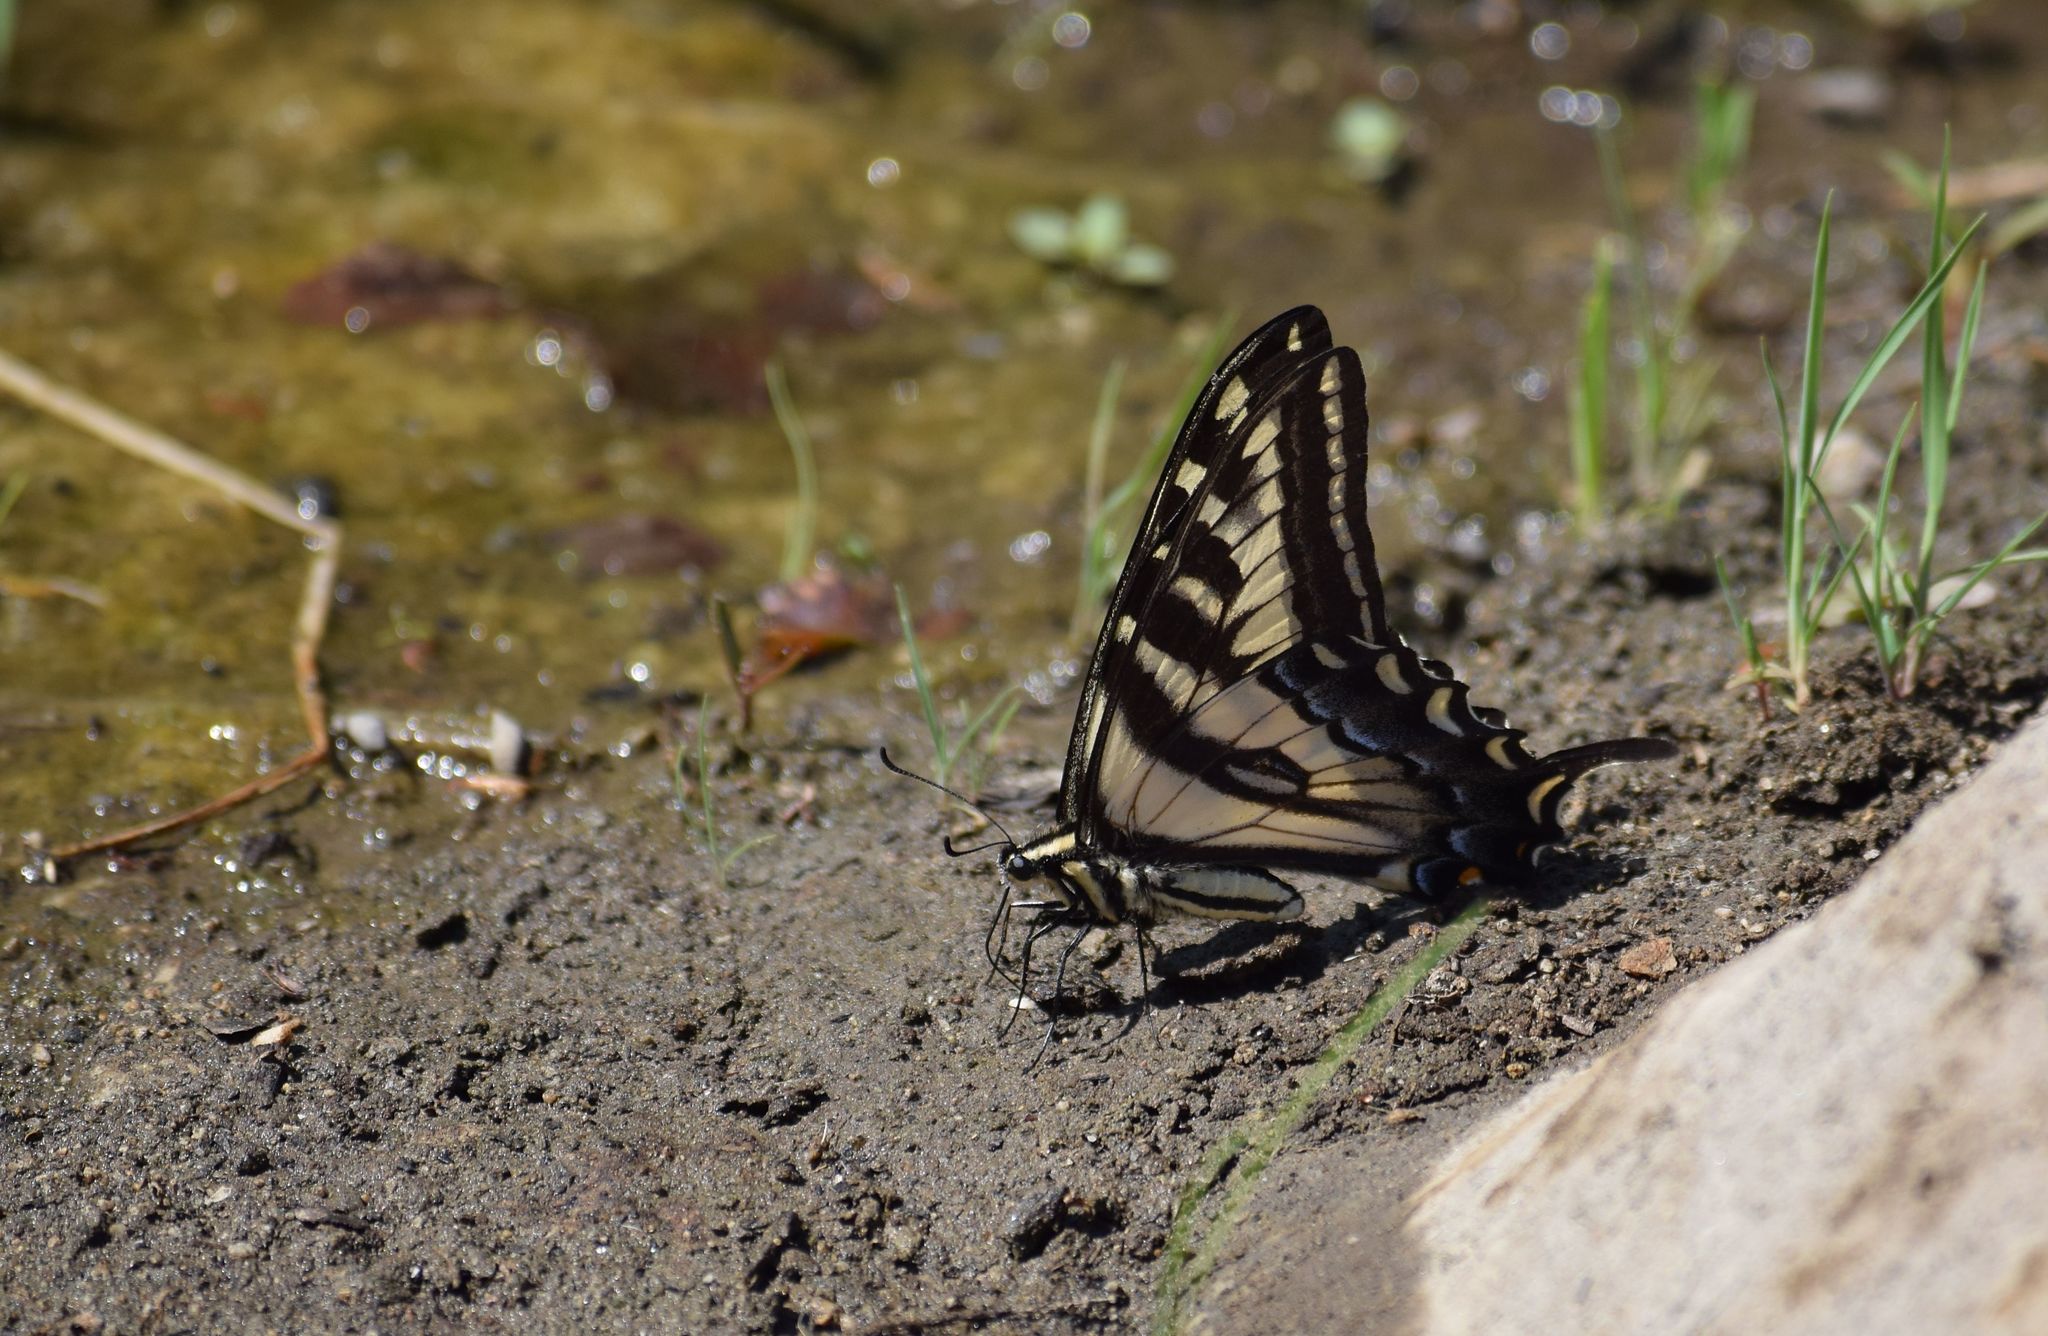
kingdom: Animalia
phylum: Arthropoda
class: Insecta
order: Lepidoptera
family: Papilionidae
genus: Papilio
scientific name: Papilio eurymedon
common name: Pale tiger swallowtail
